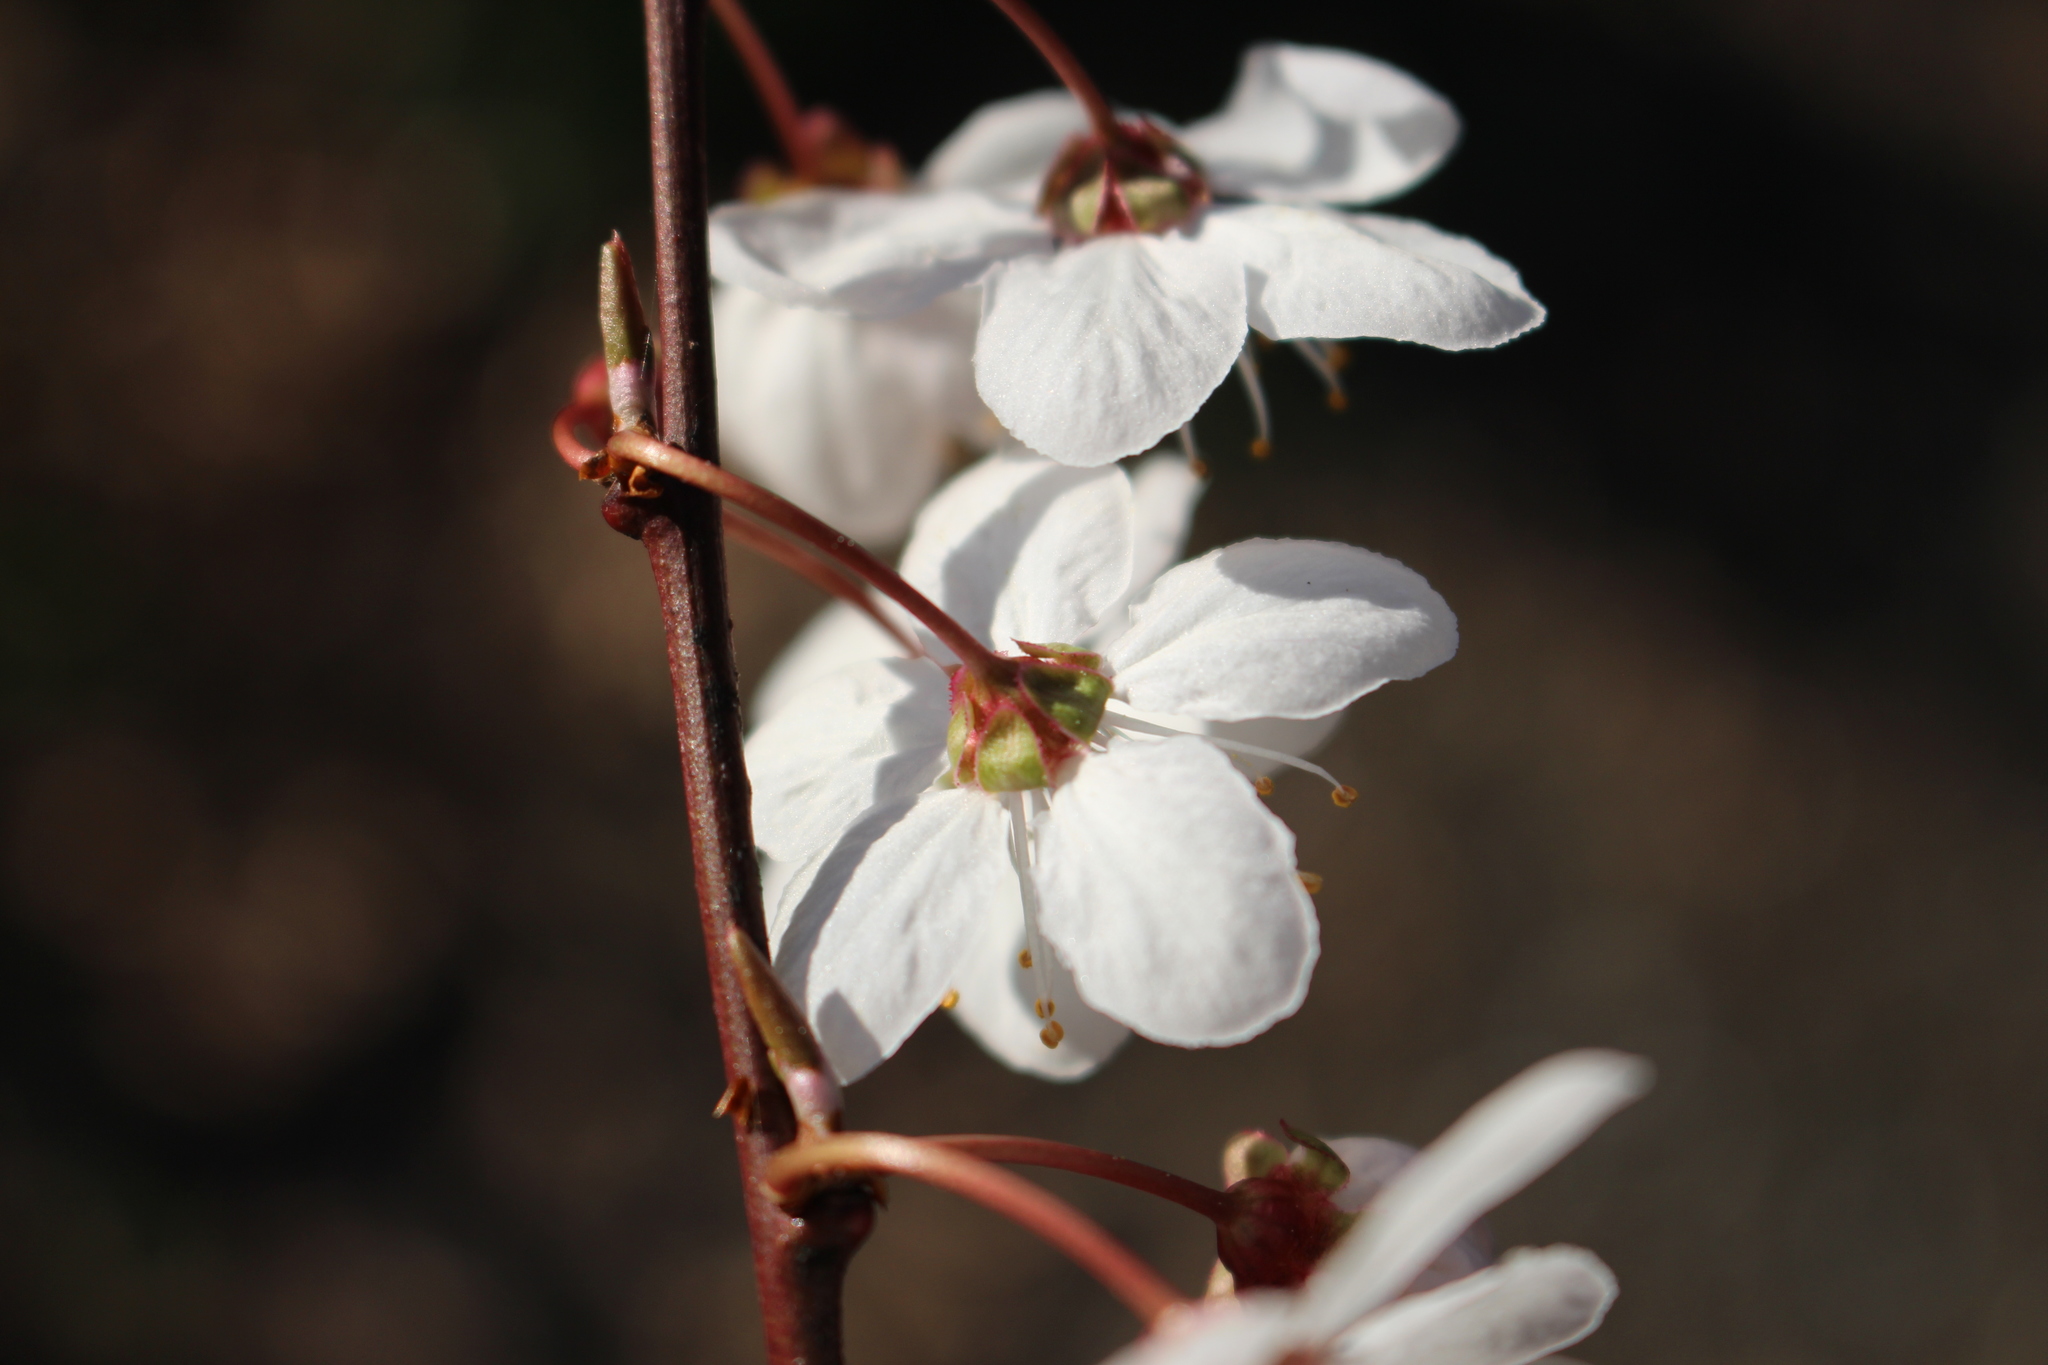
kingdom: Plantae
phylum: Tracheophyta
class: Magnoliopsida
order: Rosales
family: Rosaceae
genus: Prunus
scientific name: Prunus cerasifera
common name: Cherry plum
